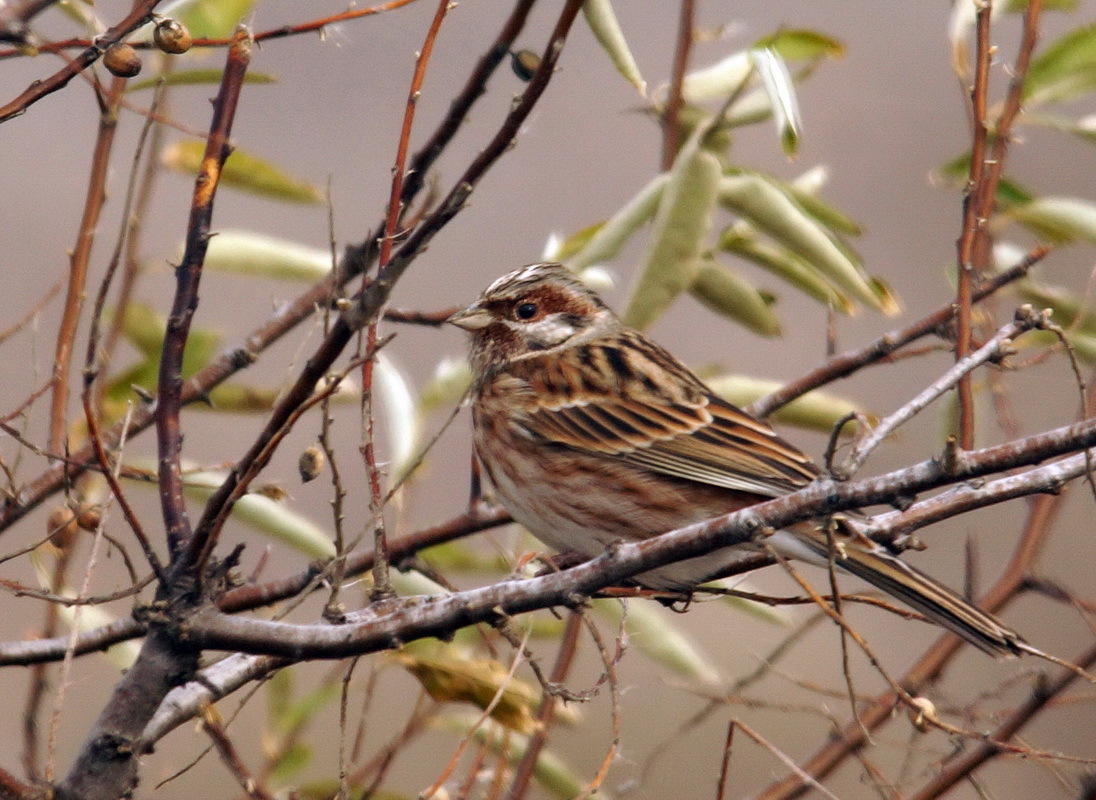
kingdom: Animalia
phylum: Chordata
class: Aves
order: Passeriformes
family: Emberizidae
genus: Emberiza
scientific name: Emberiza leucocephalos
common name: Pine bunting
